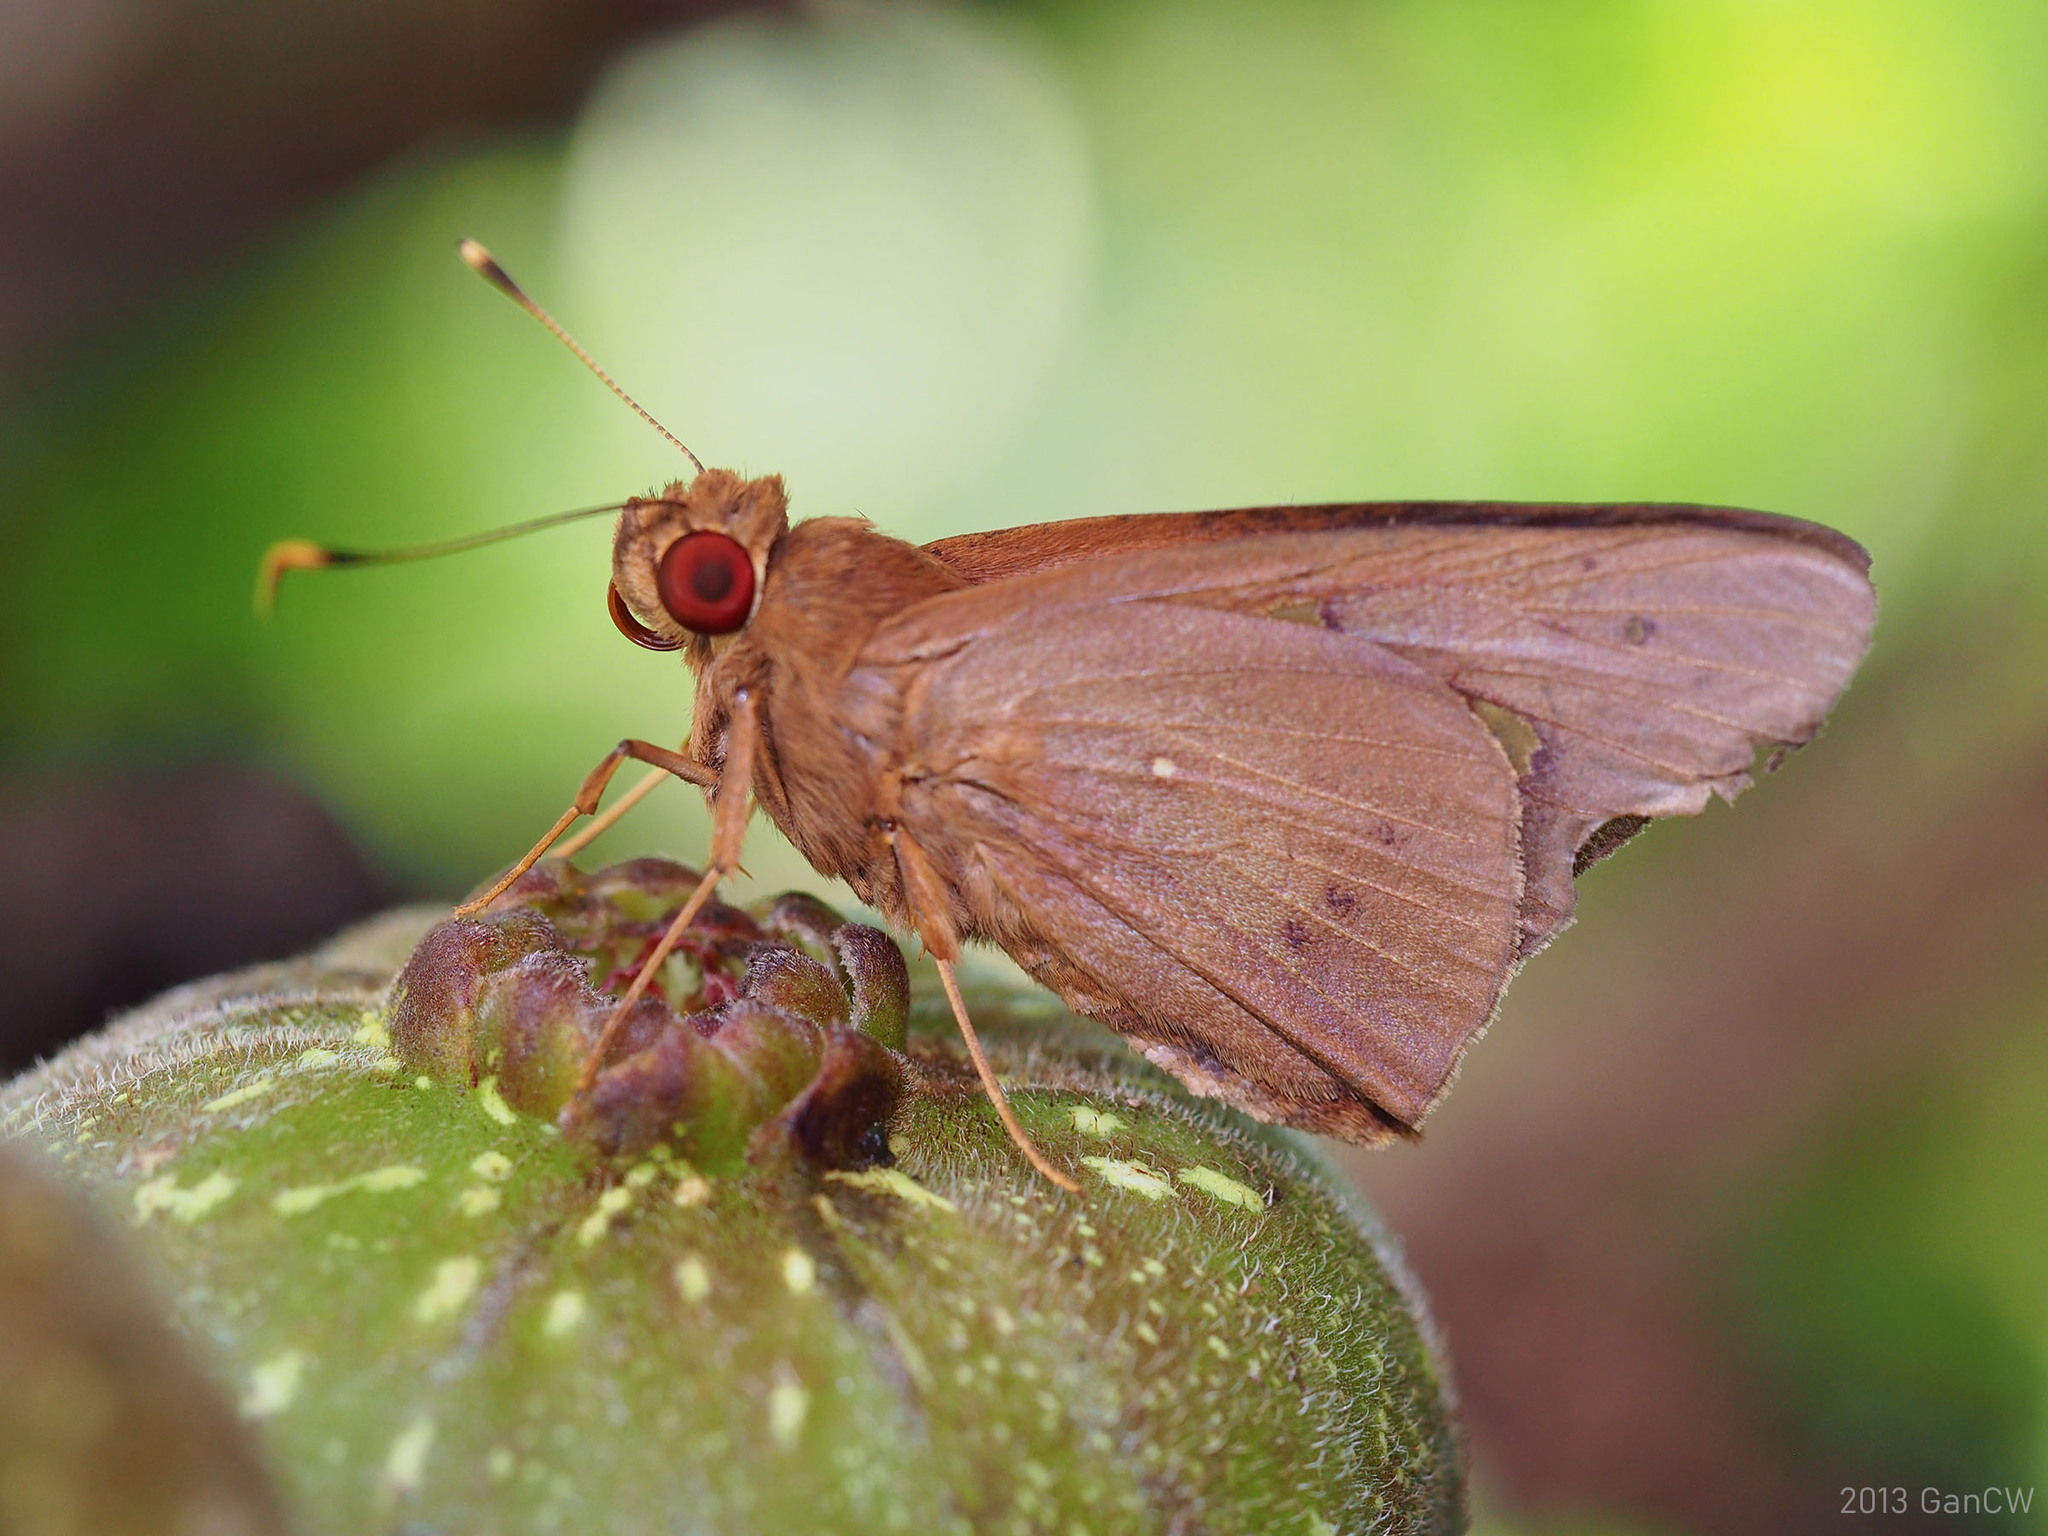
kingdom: Animalia
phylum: Arthropoda
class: Insecta
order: Lepidoptera
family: Hesperiidae
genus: Hidari
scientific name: Hidari irava
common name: Coconut skipper
